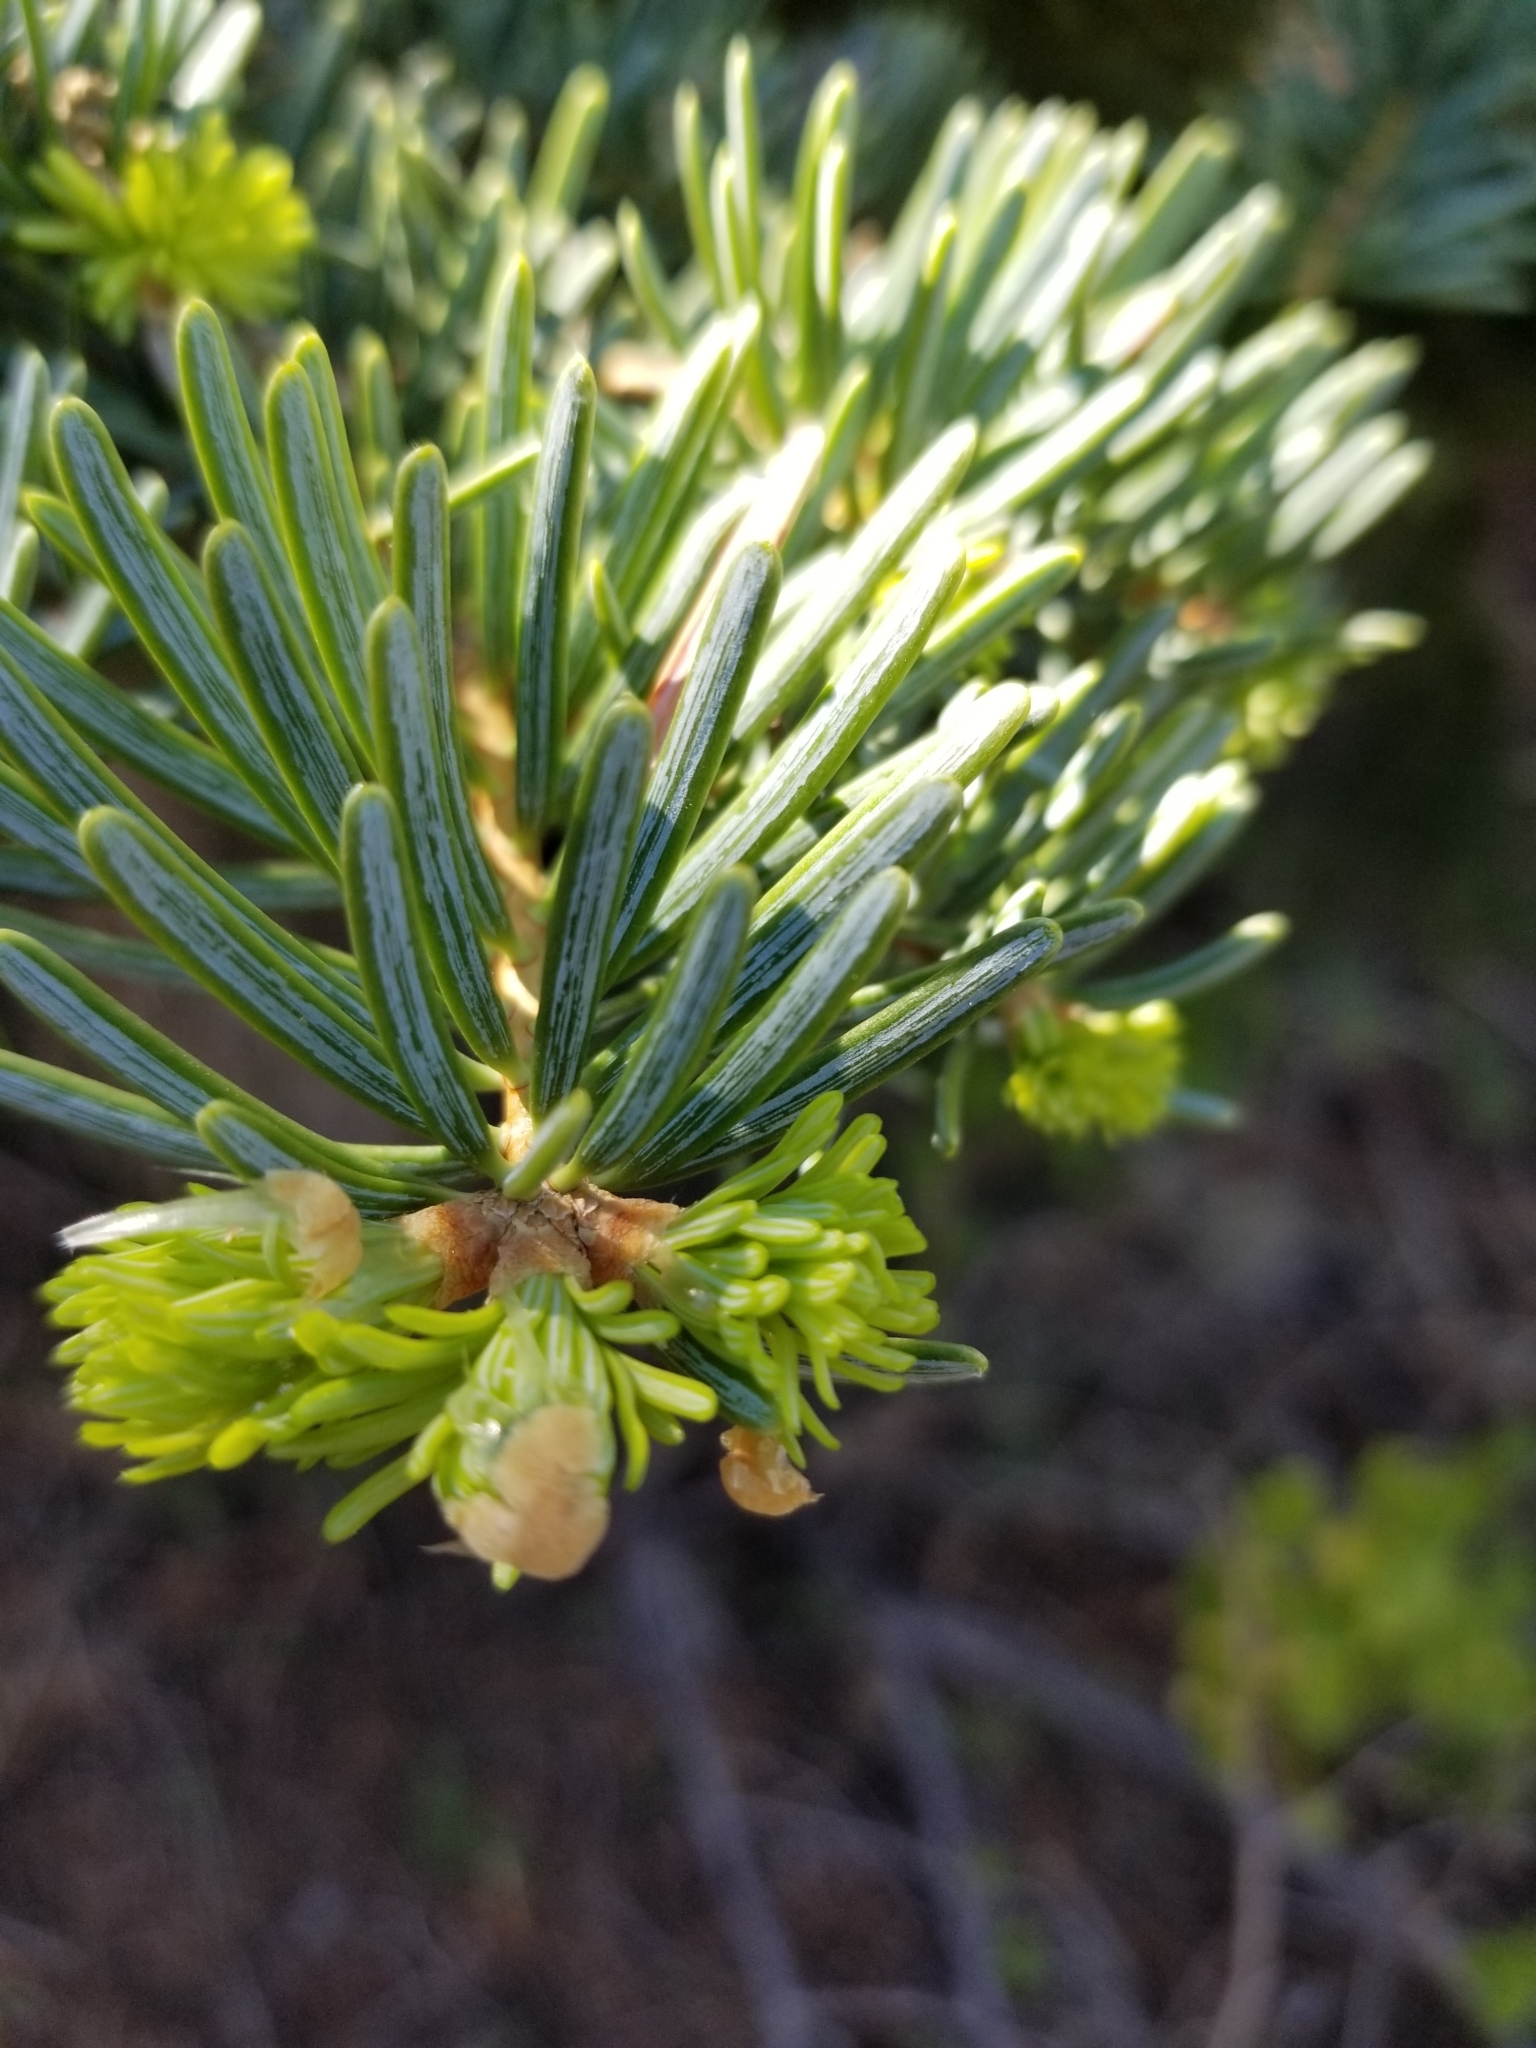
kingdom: Plantae
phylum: Tracheophyta
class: Pinopsida
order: Pinales
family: Pinaceae
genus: Abies
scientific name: Abies concolor
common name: Colorado fir
